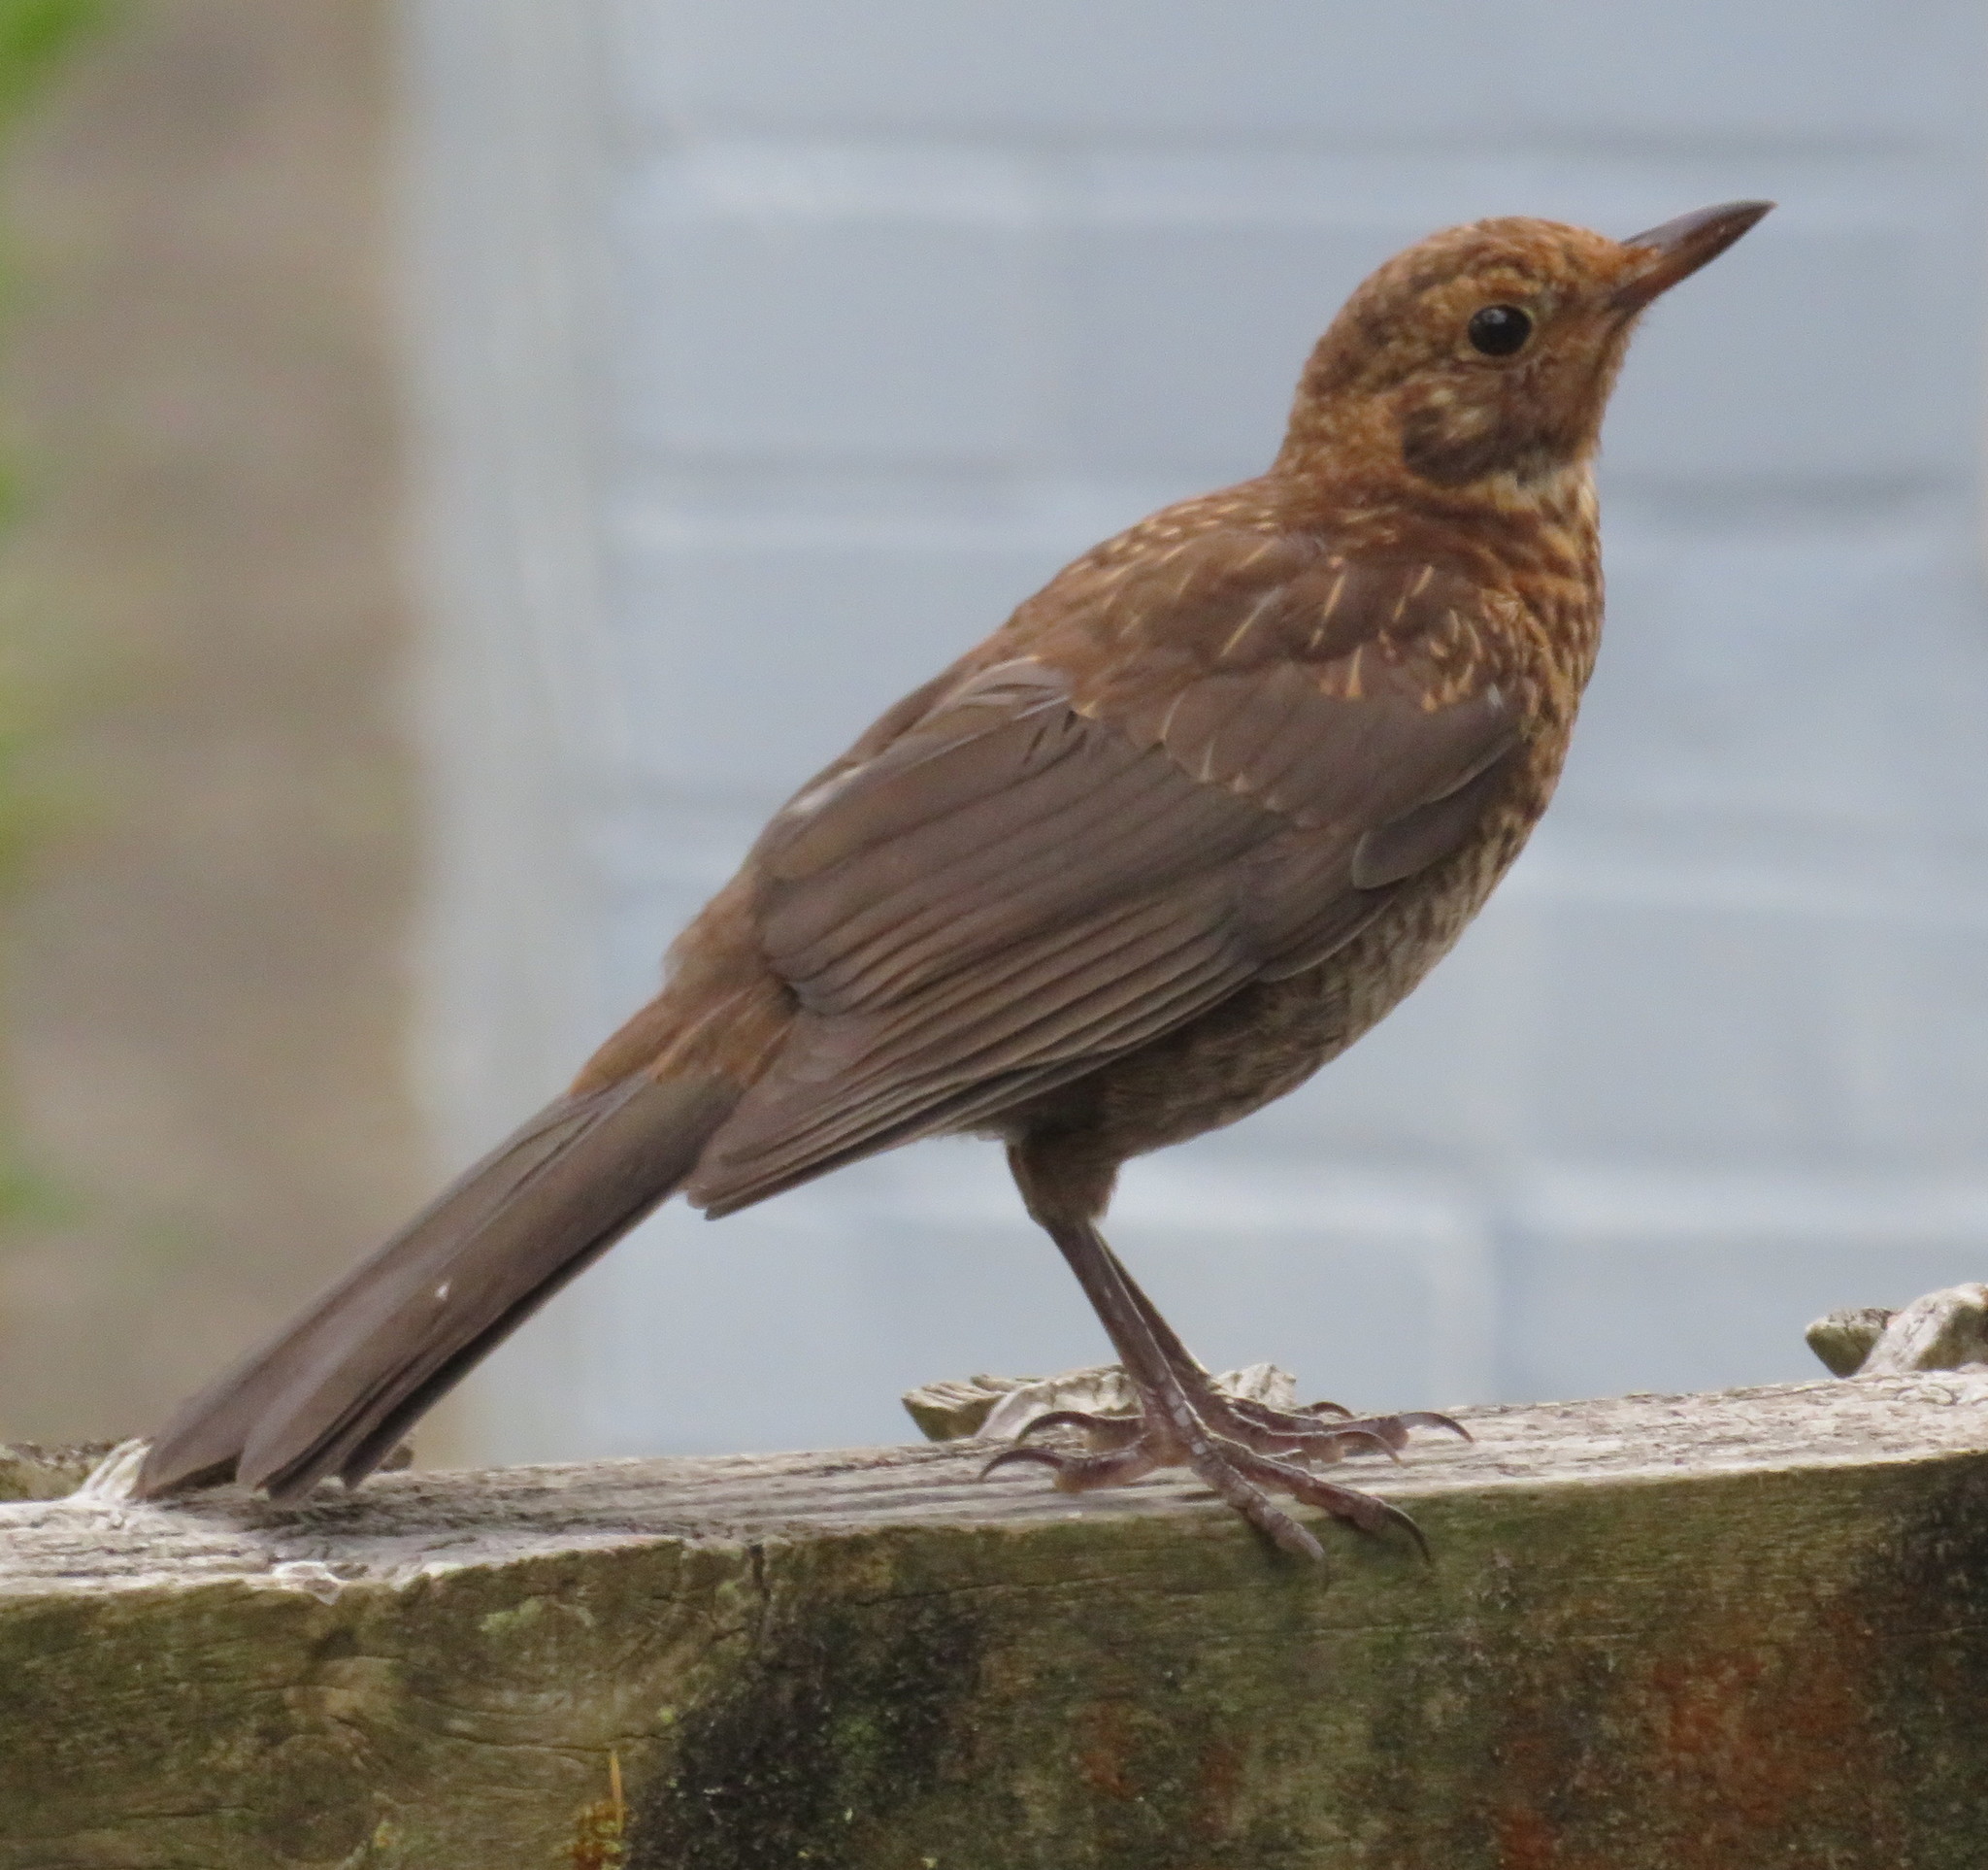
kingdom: Animalia
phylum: Chordata
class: Aves
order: Passeriformes
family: Turdidae
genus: Turdus
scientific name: Turdus merula
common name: Common blackbird
